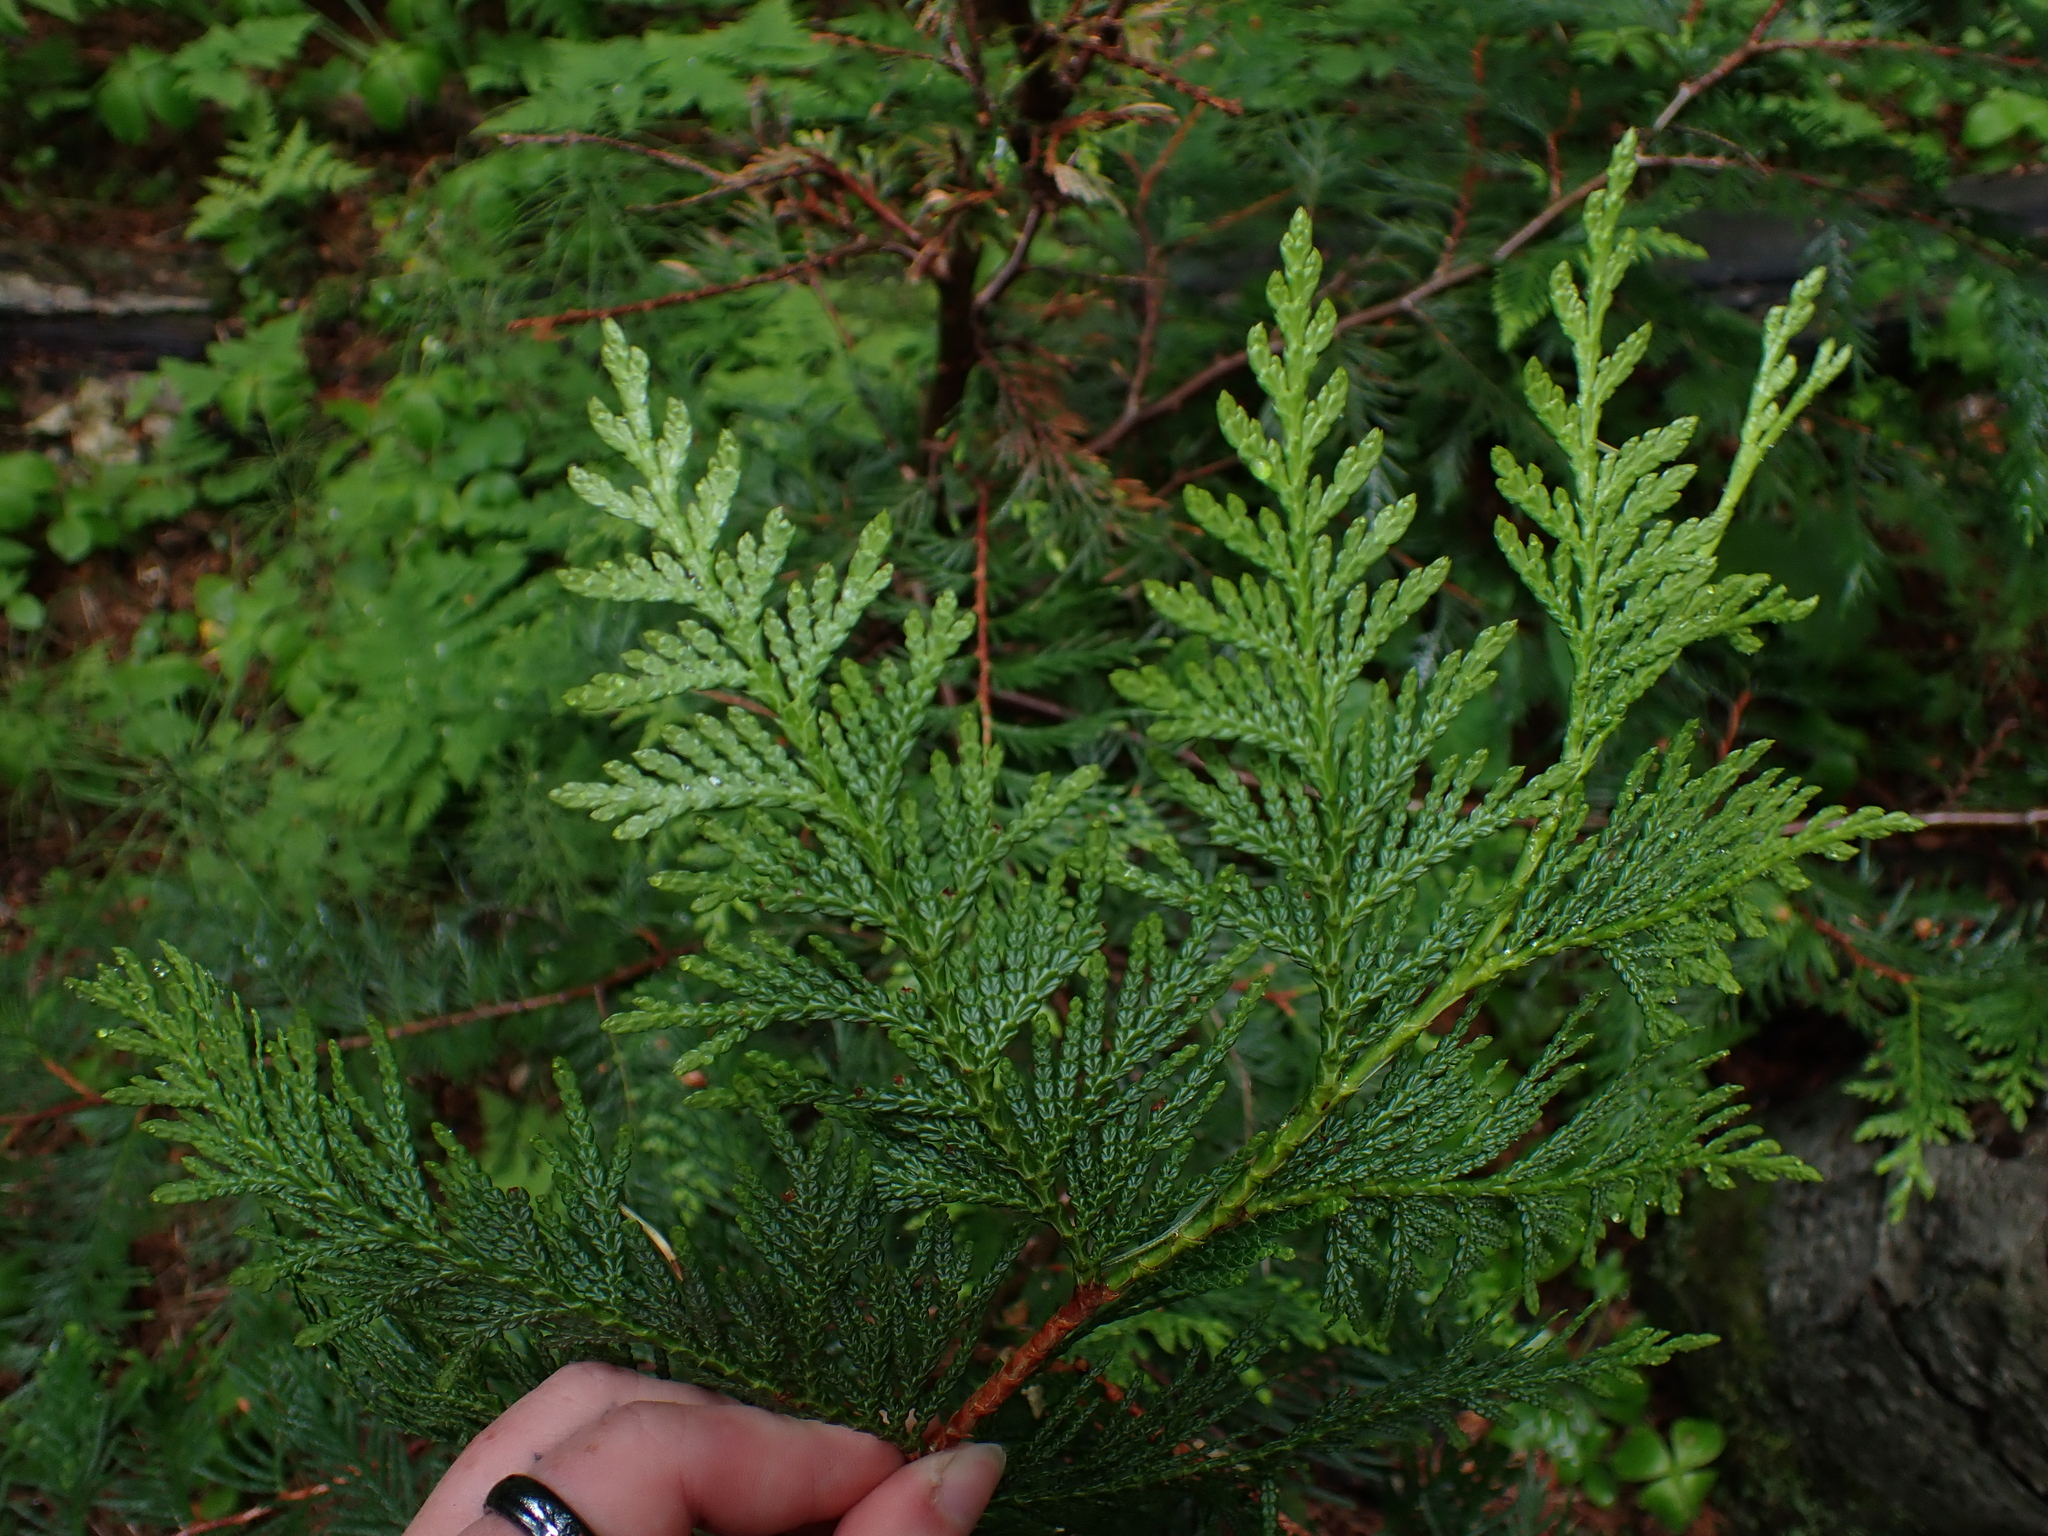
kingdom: Plantae
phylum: Tracheophyta
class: Pinopsida
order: Pinales
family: Cupressaceae
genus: Thuja
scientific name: Thuja plicata
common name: Western red-cedar
